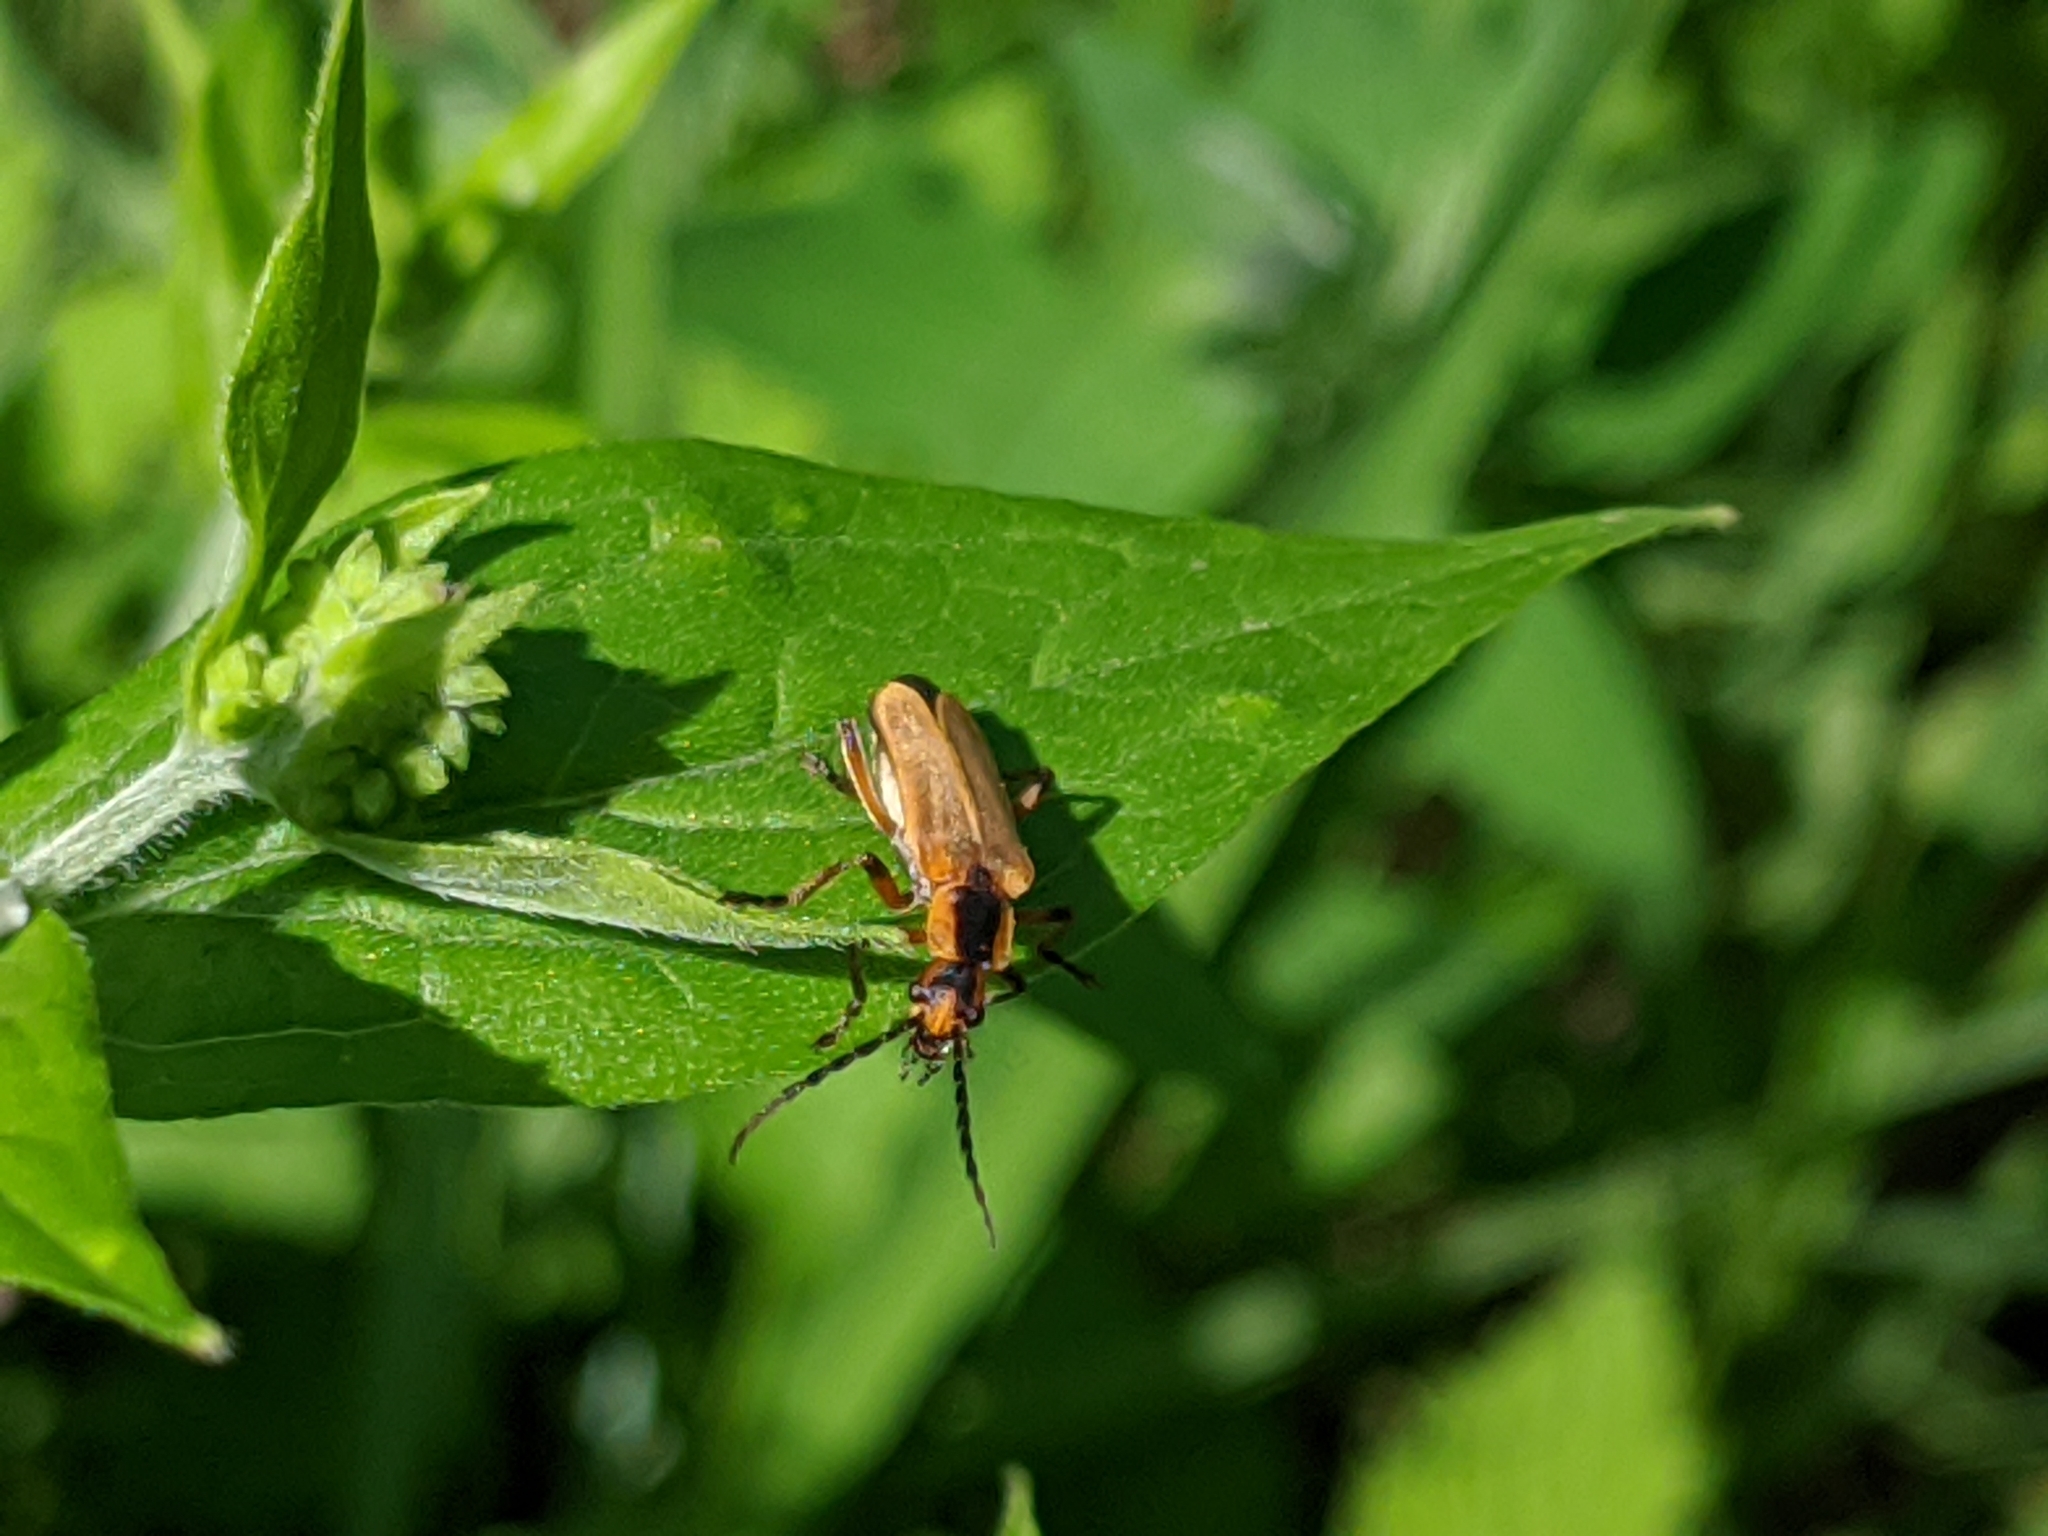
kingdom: Animalia
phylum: Arthropoda
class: Insecta
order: Coleoptera
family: Cantharidae
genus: Chauliognathus
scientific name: Chauliognathus marginatus
